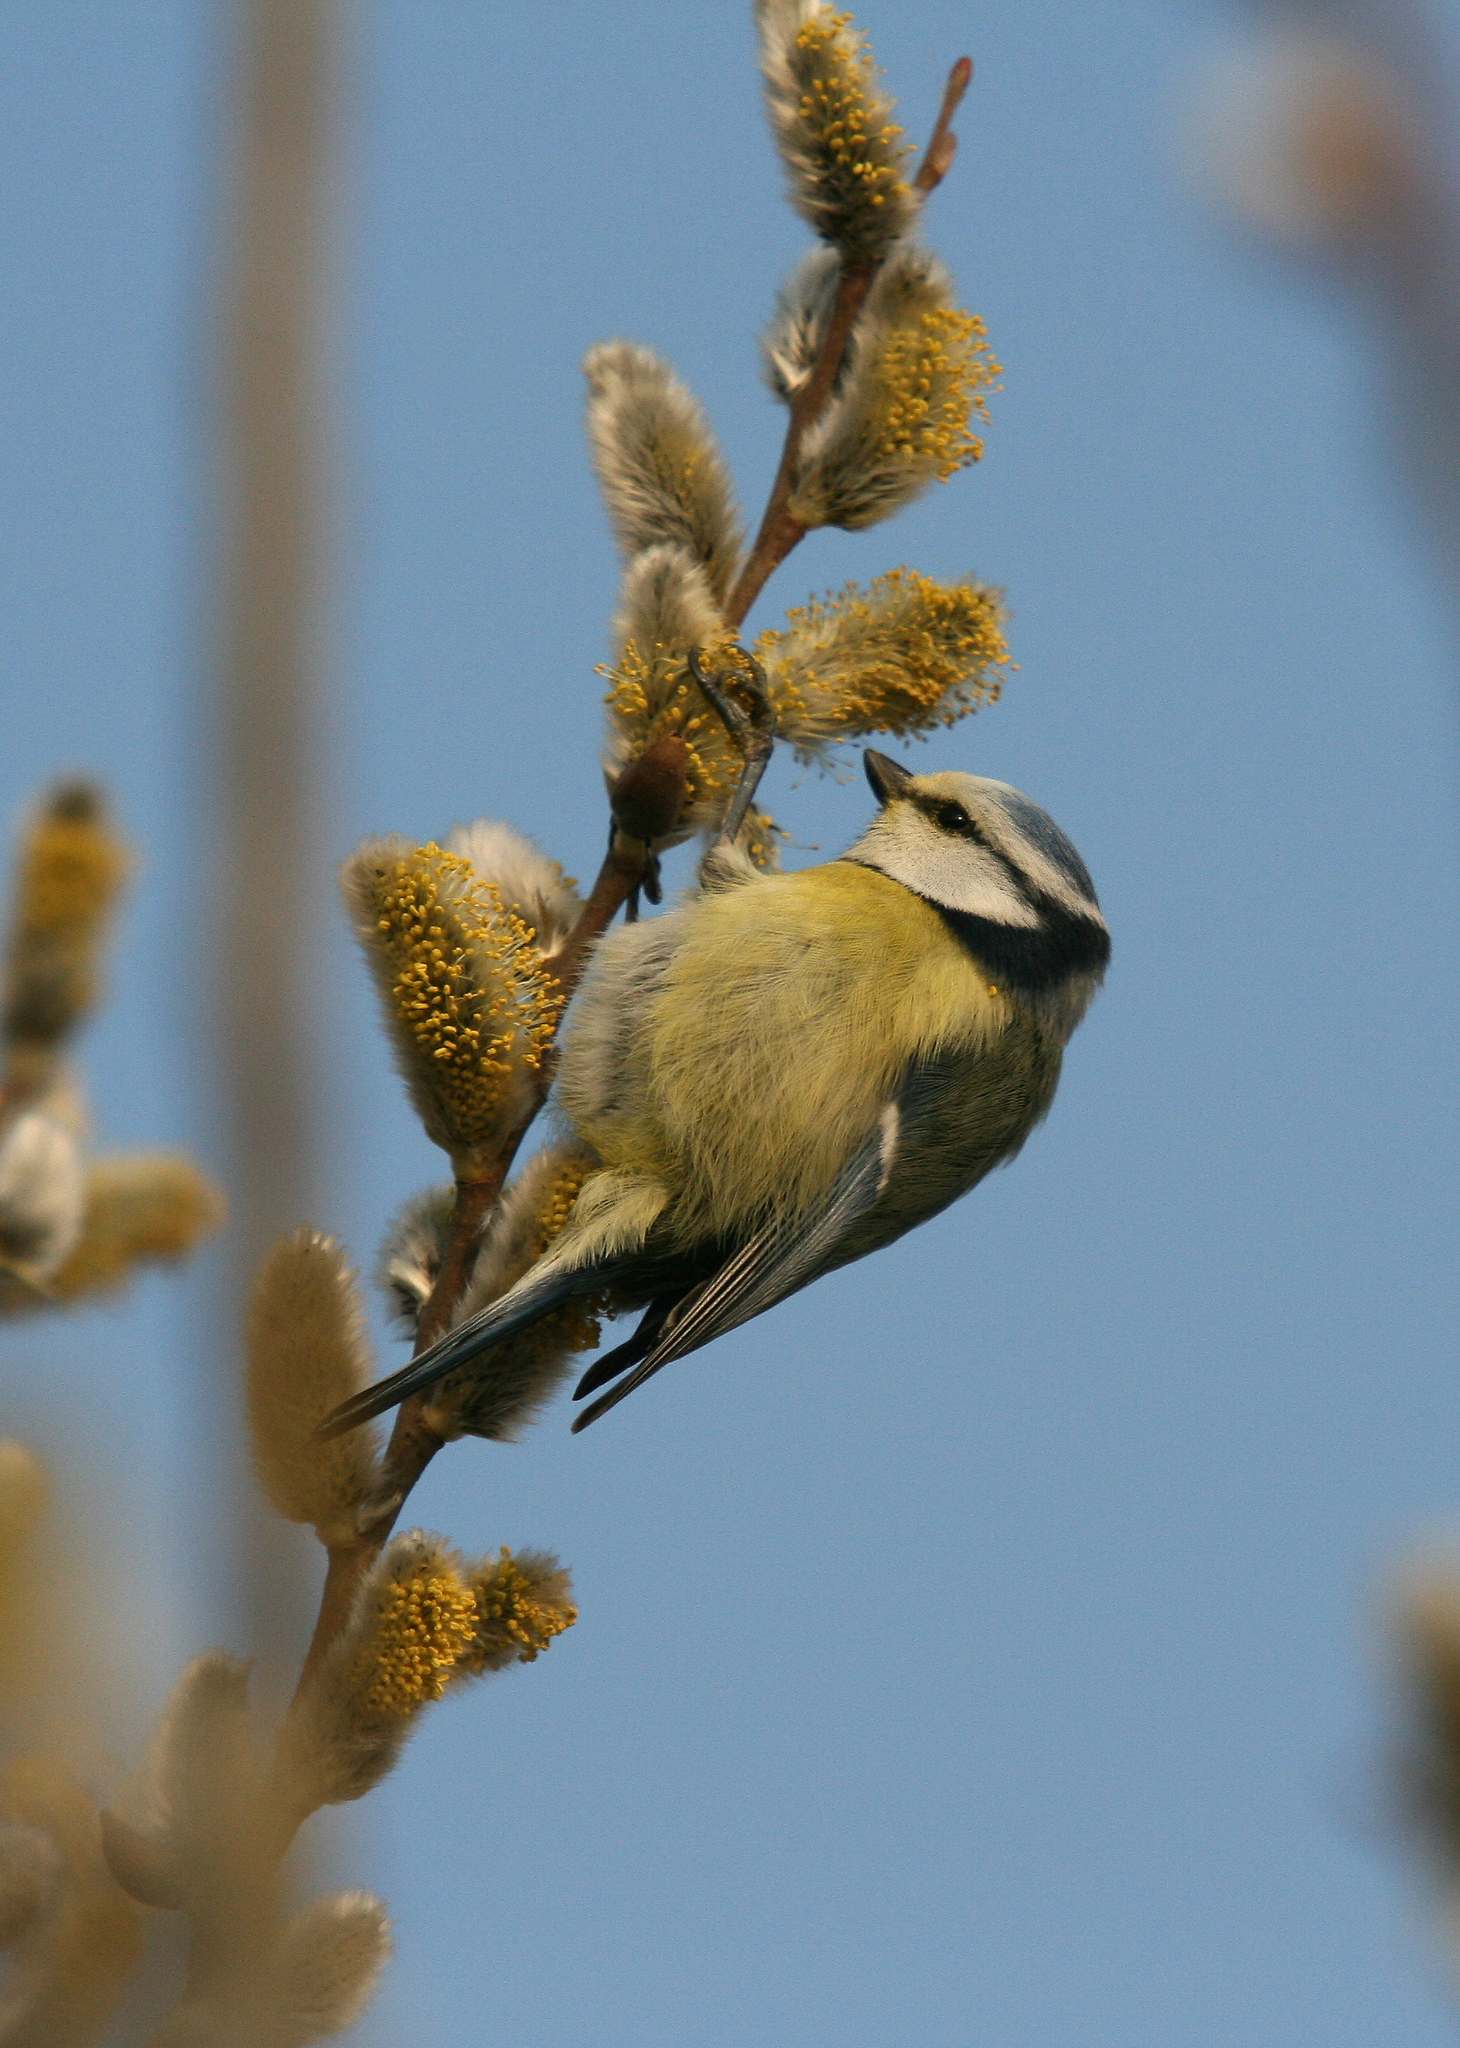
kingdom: Animalia
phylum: Chordata
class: Aves
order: Passeriformes
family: Paridae
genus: Cyanistes
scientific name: Cyanistes caeruleus
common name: Eurasian blue tit
